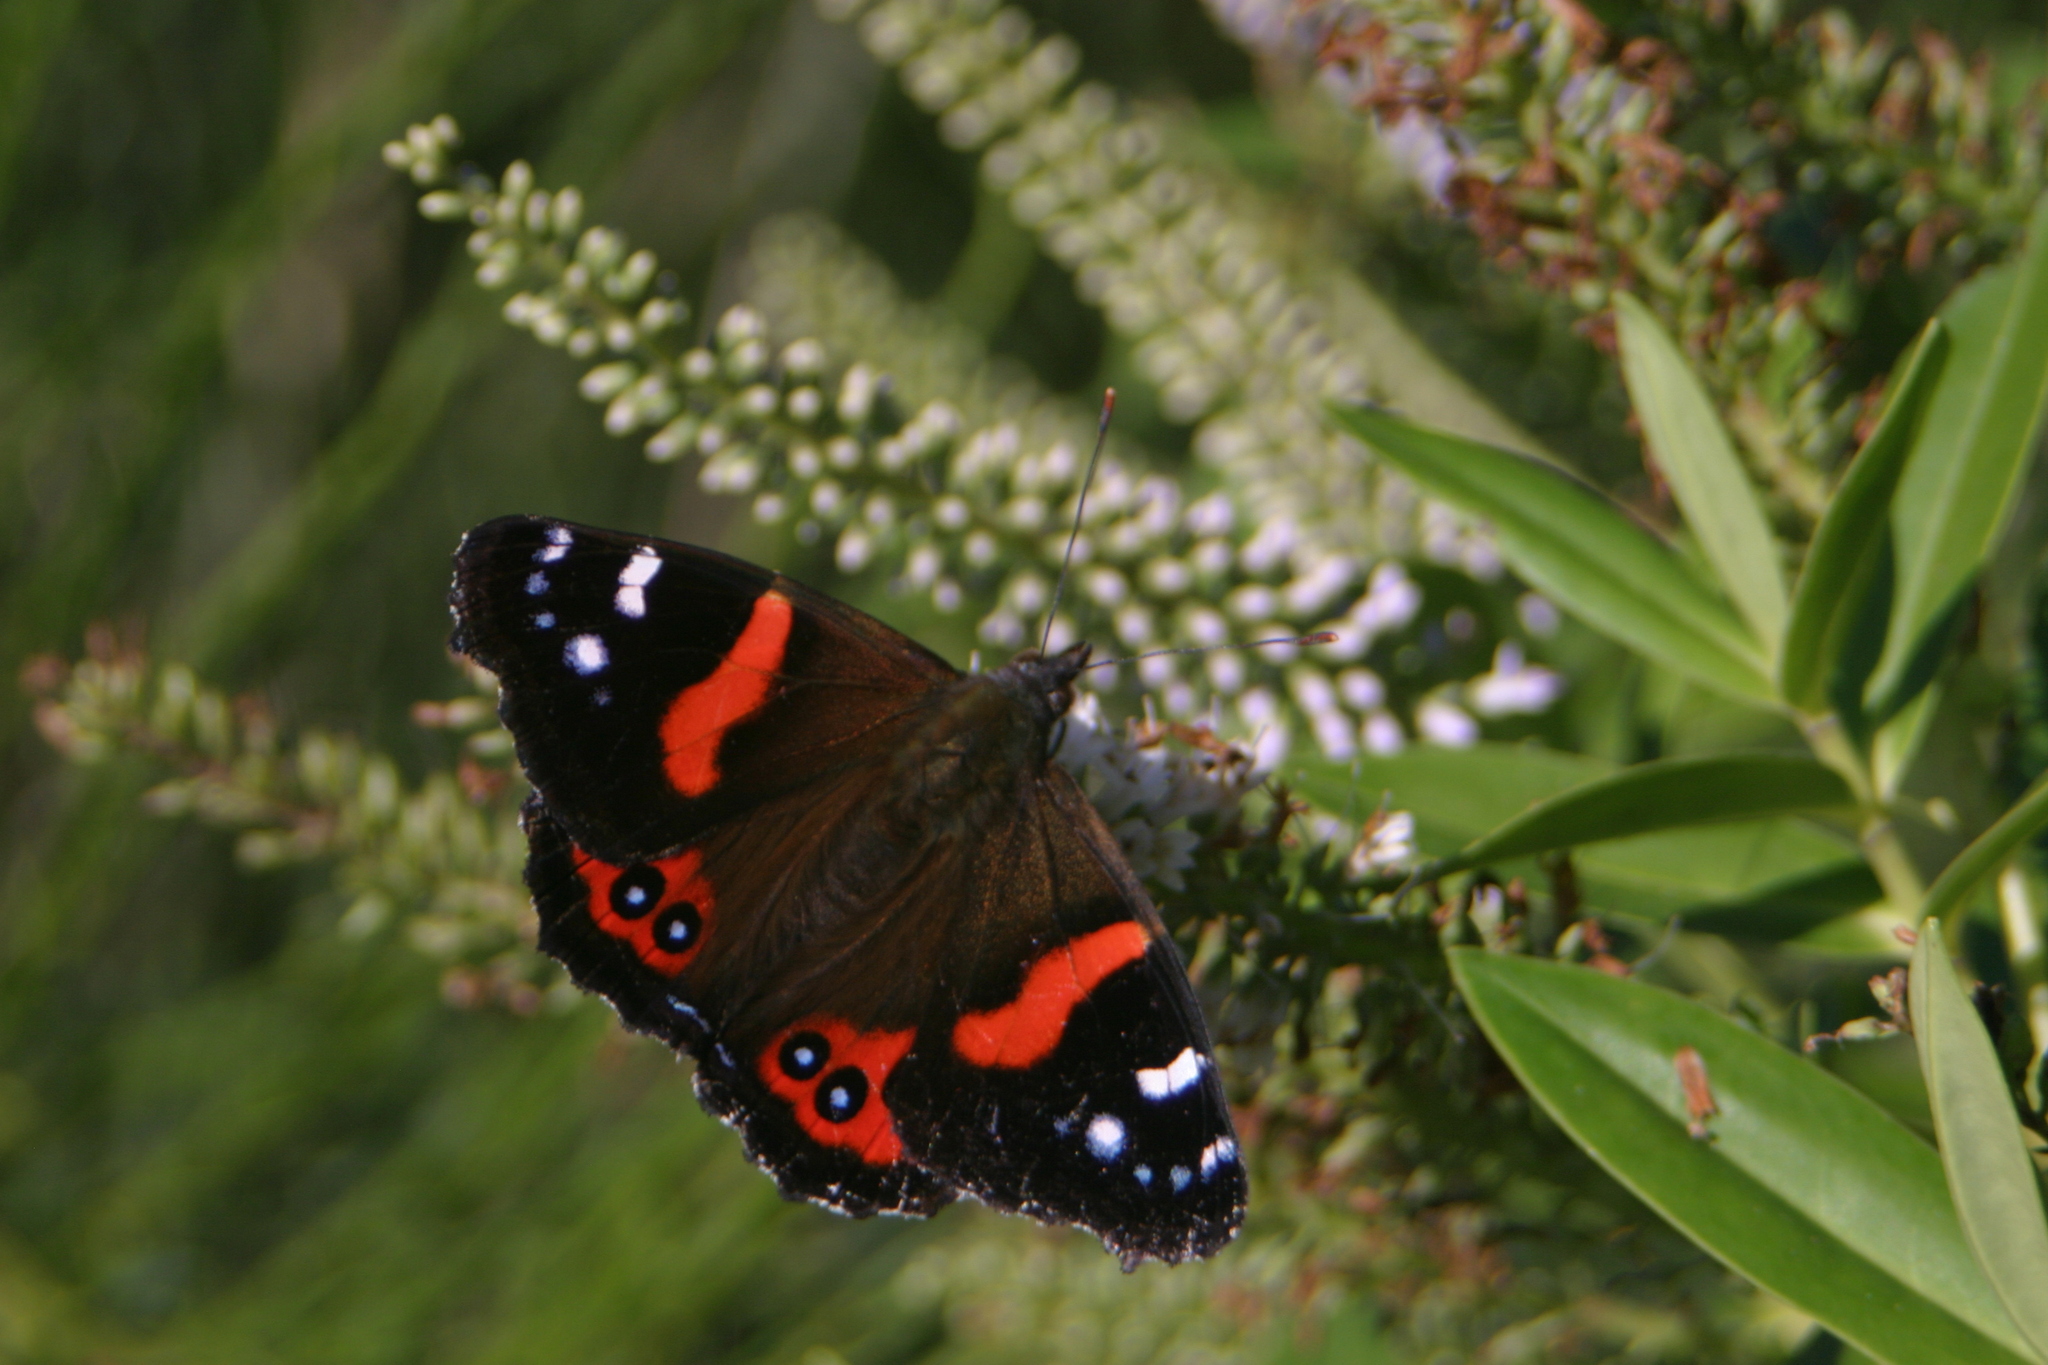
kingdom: Animalia
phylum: Arthropoda
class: Insecta
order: Lepidoptera
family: Nymphalidae
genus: Vanessa
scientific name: Vanessa gonerilla
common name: New zealand red admiral
